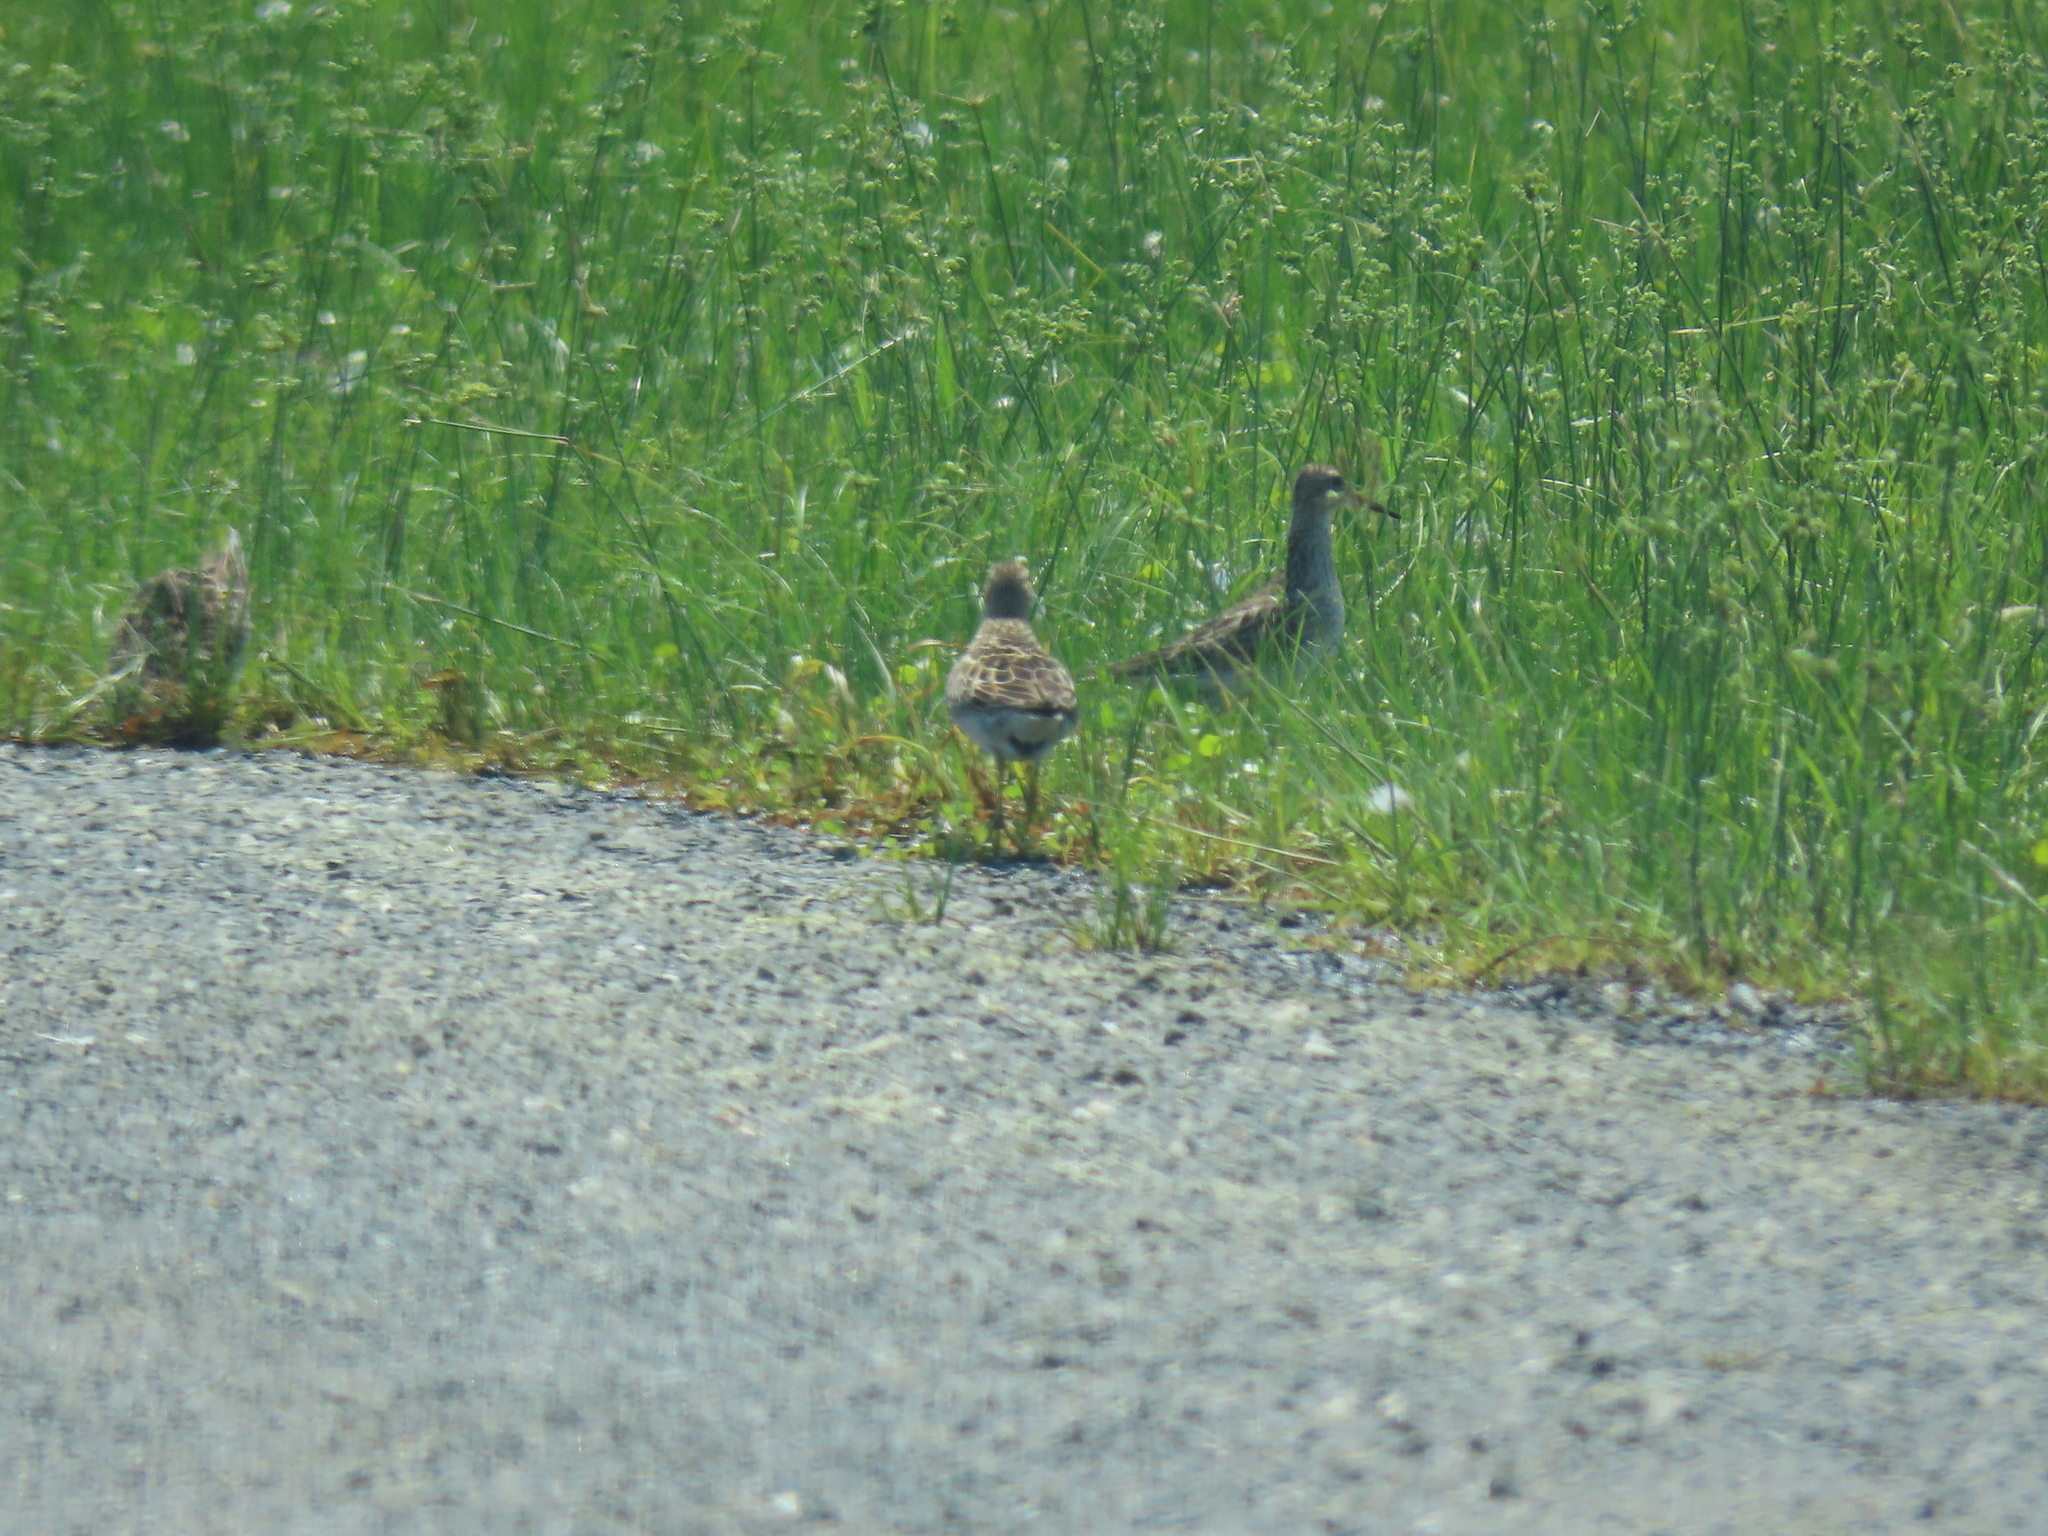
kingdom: Animalia
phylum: Chordata
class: Aves
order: Charadriiformes
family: Scolopacidae
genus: Calidris
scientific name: Calidris melanotos
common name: Pectoral sandpiper
